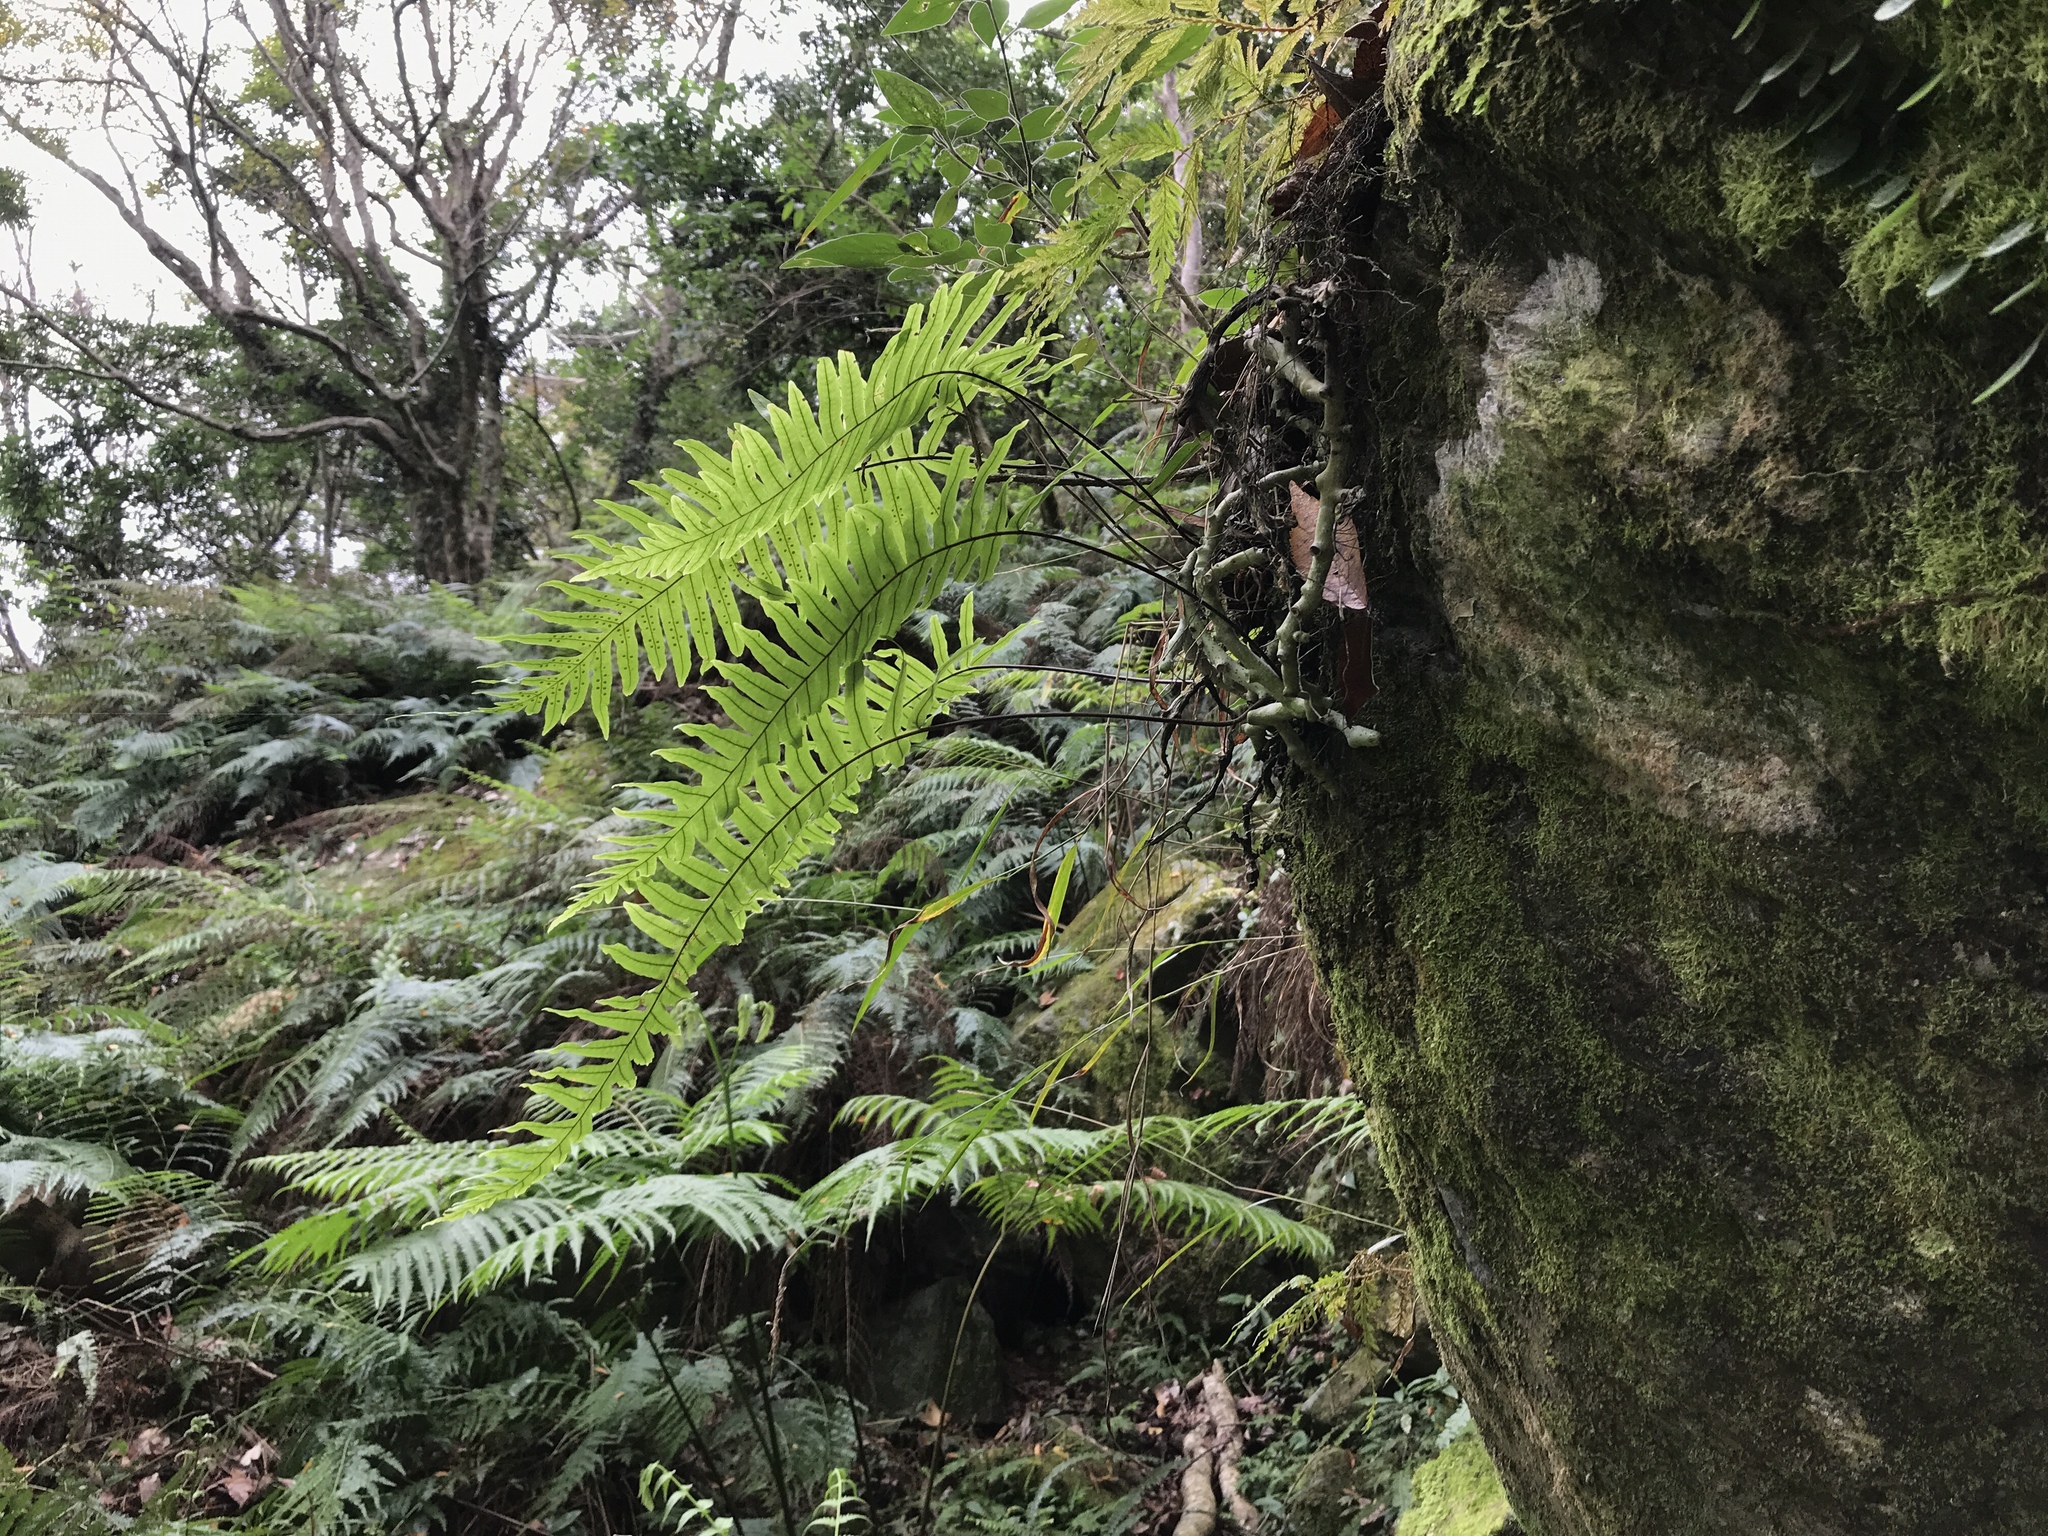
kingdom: Plantae
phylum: Tracheophyta
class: Polypodiopsida
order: Polypodiales
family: Polypodiaceae
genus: Goniophlebium
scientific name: Goniophlebium formosanum
